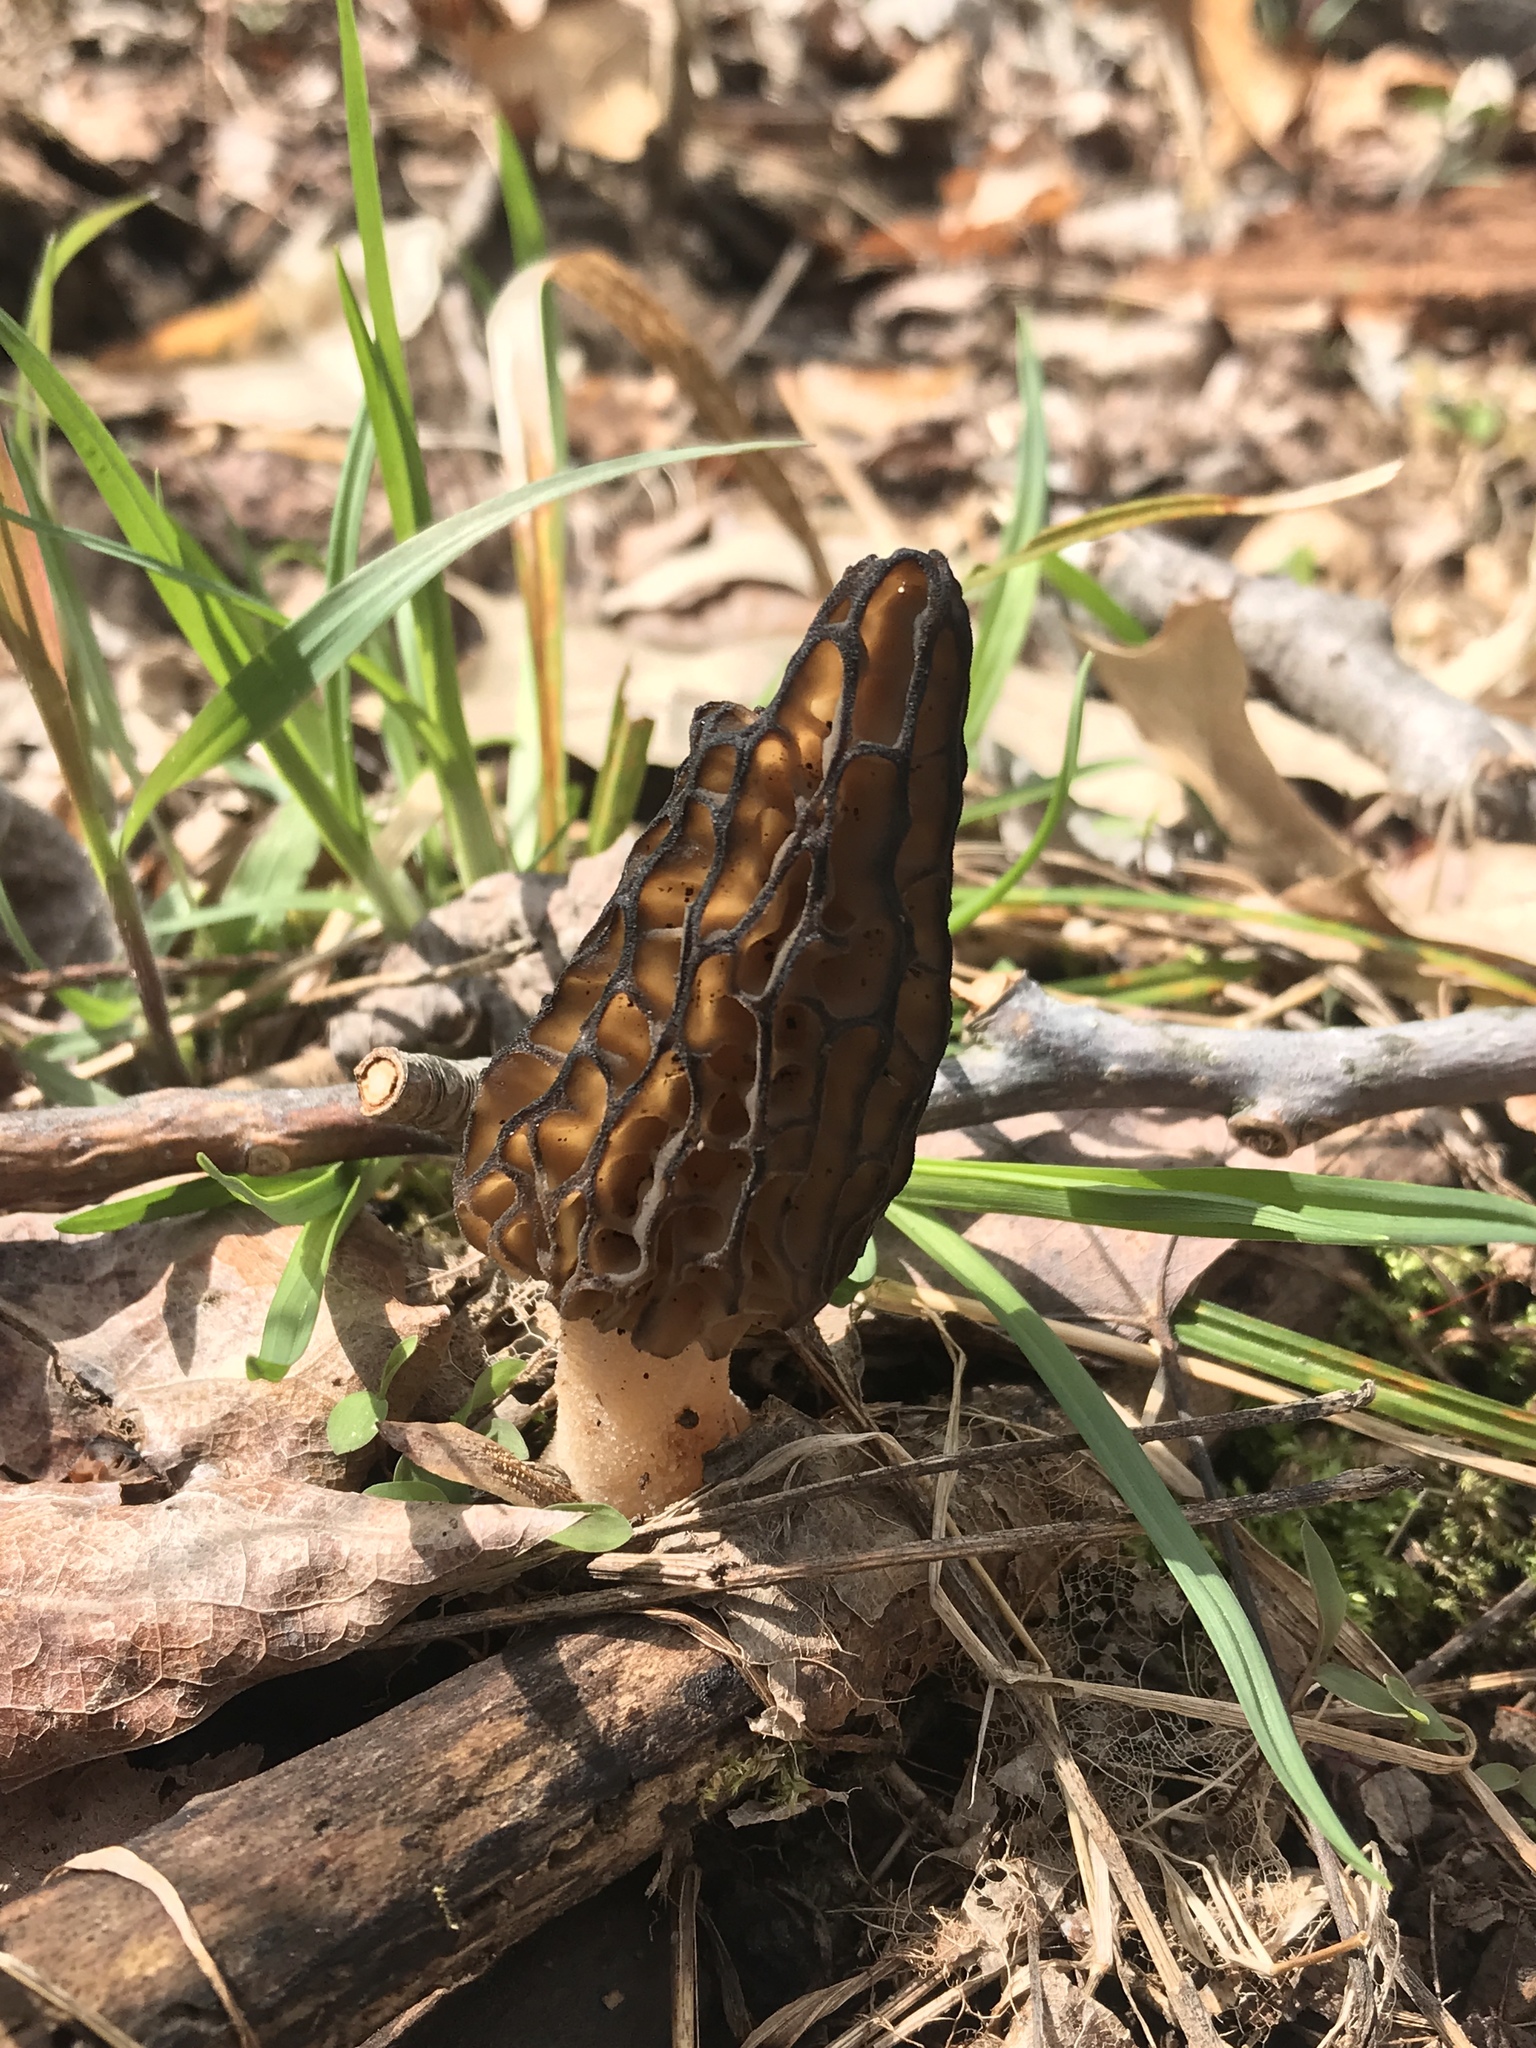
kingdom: Fungi
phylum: Ascomycota
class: Pezizomycetes
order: Pezizales
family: Morchellaceae
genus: Morchella
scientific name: Morchella angusticeps
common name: Black morel
